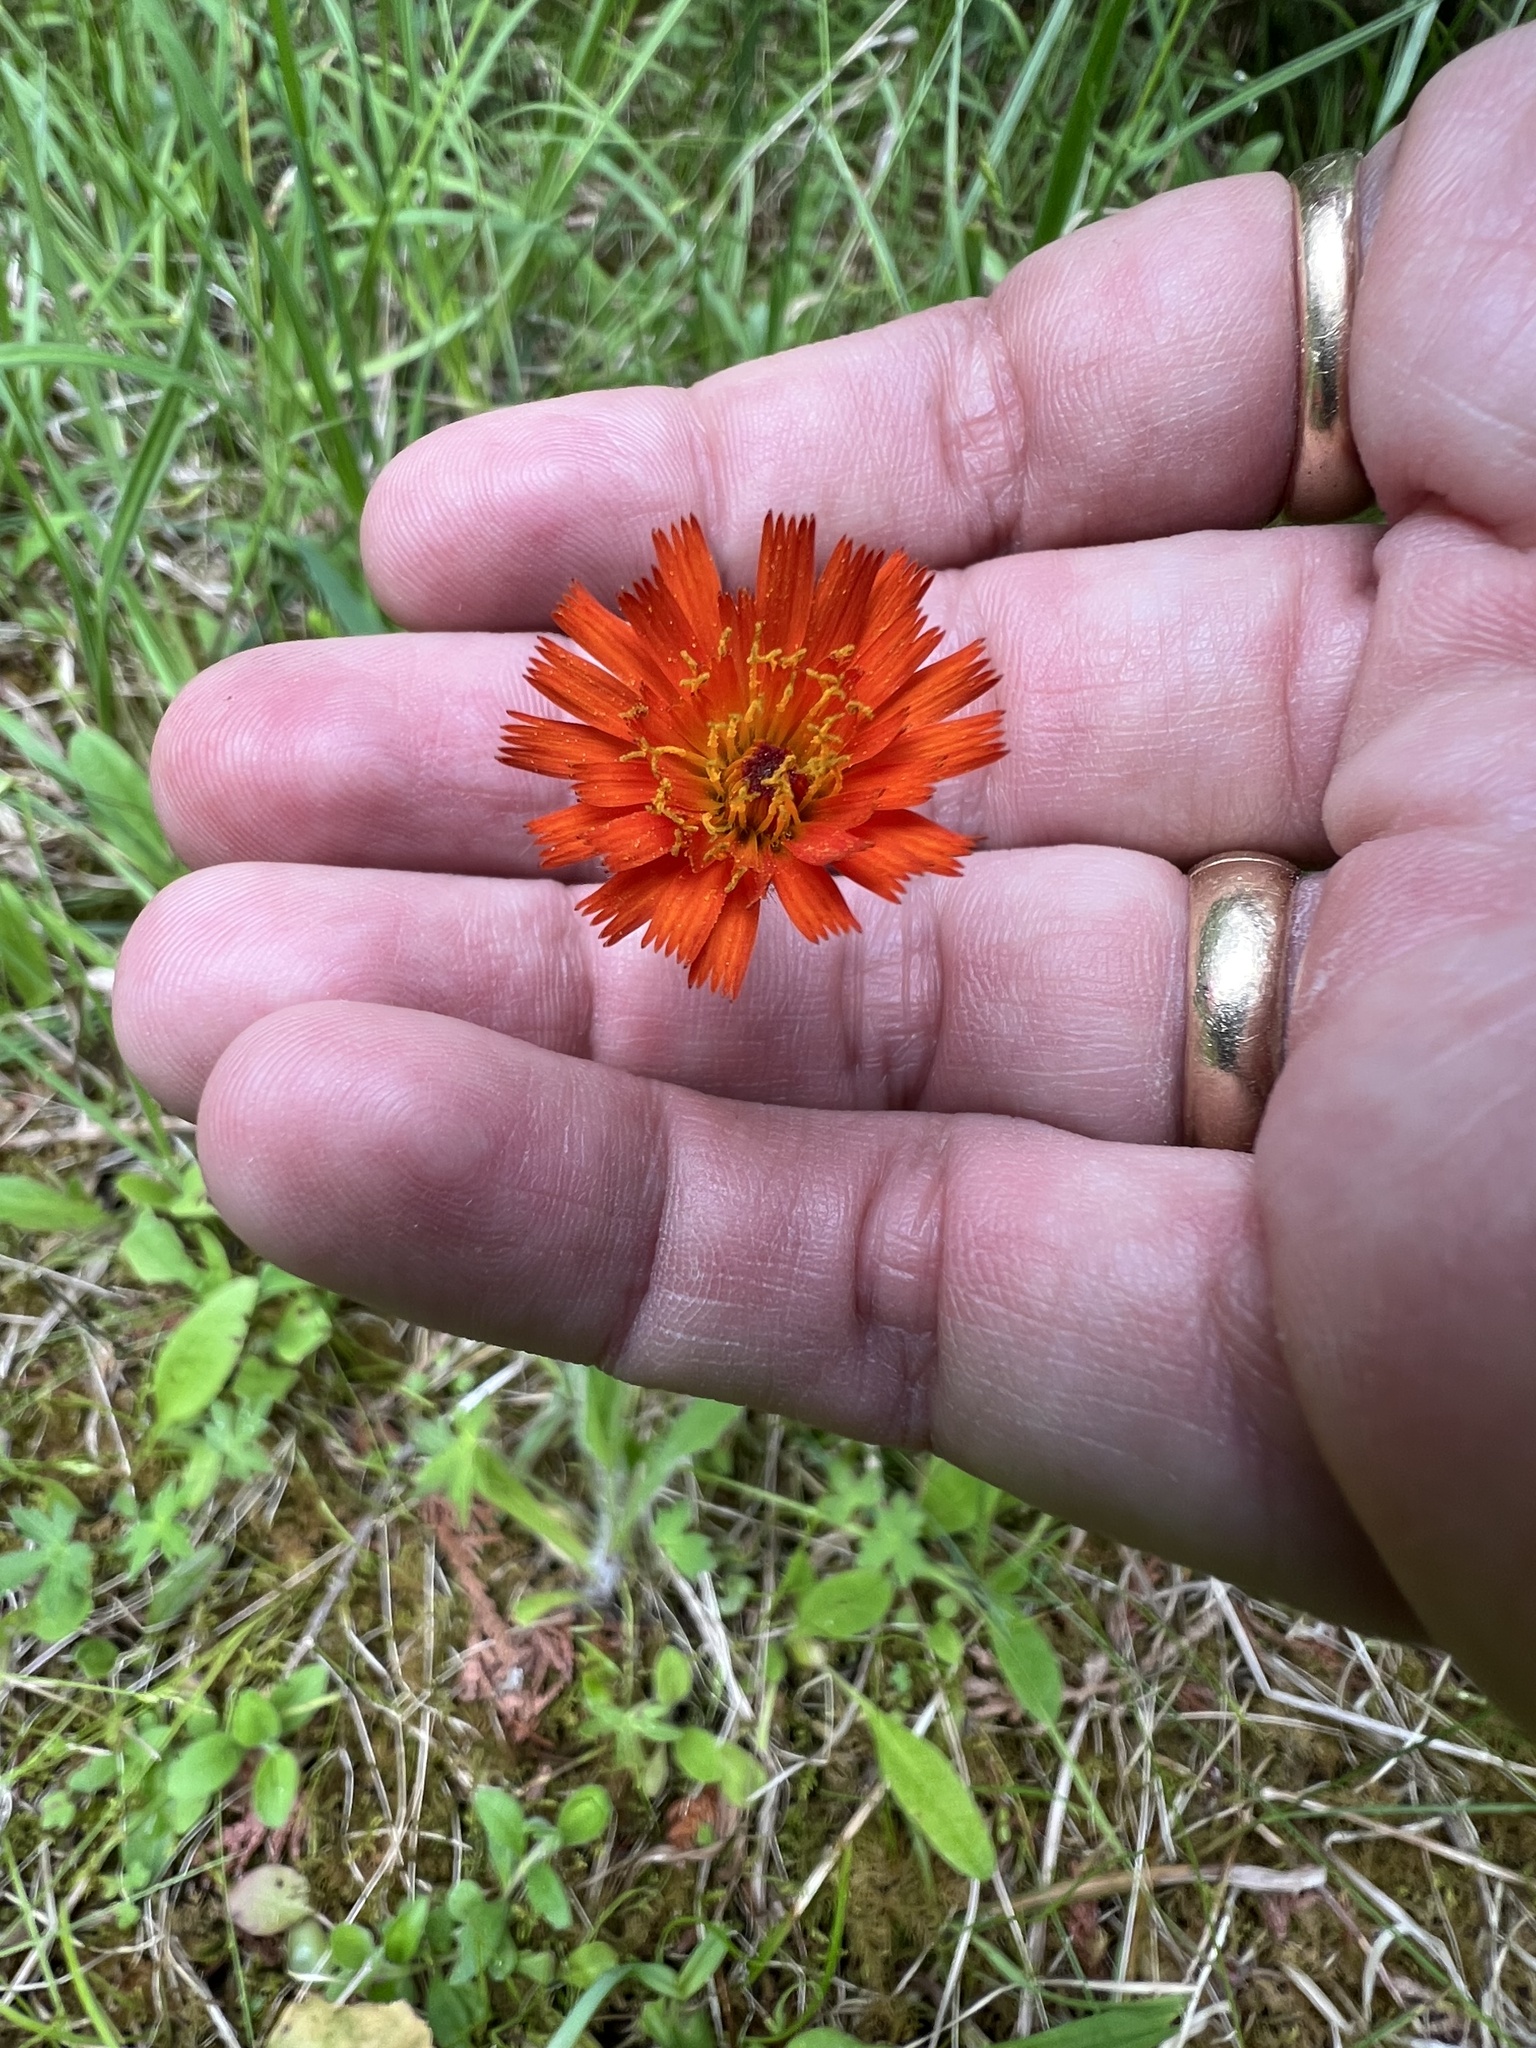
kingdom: Plantae
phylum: Tracheophyta
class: Magnoliopsida
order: Asterales
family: Asteraceae
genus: Pilosella
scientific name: Pilosella aurantiaca
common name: Fox-and-cubs
